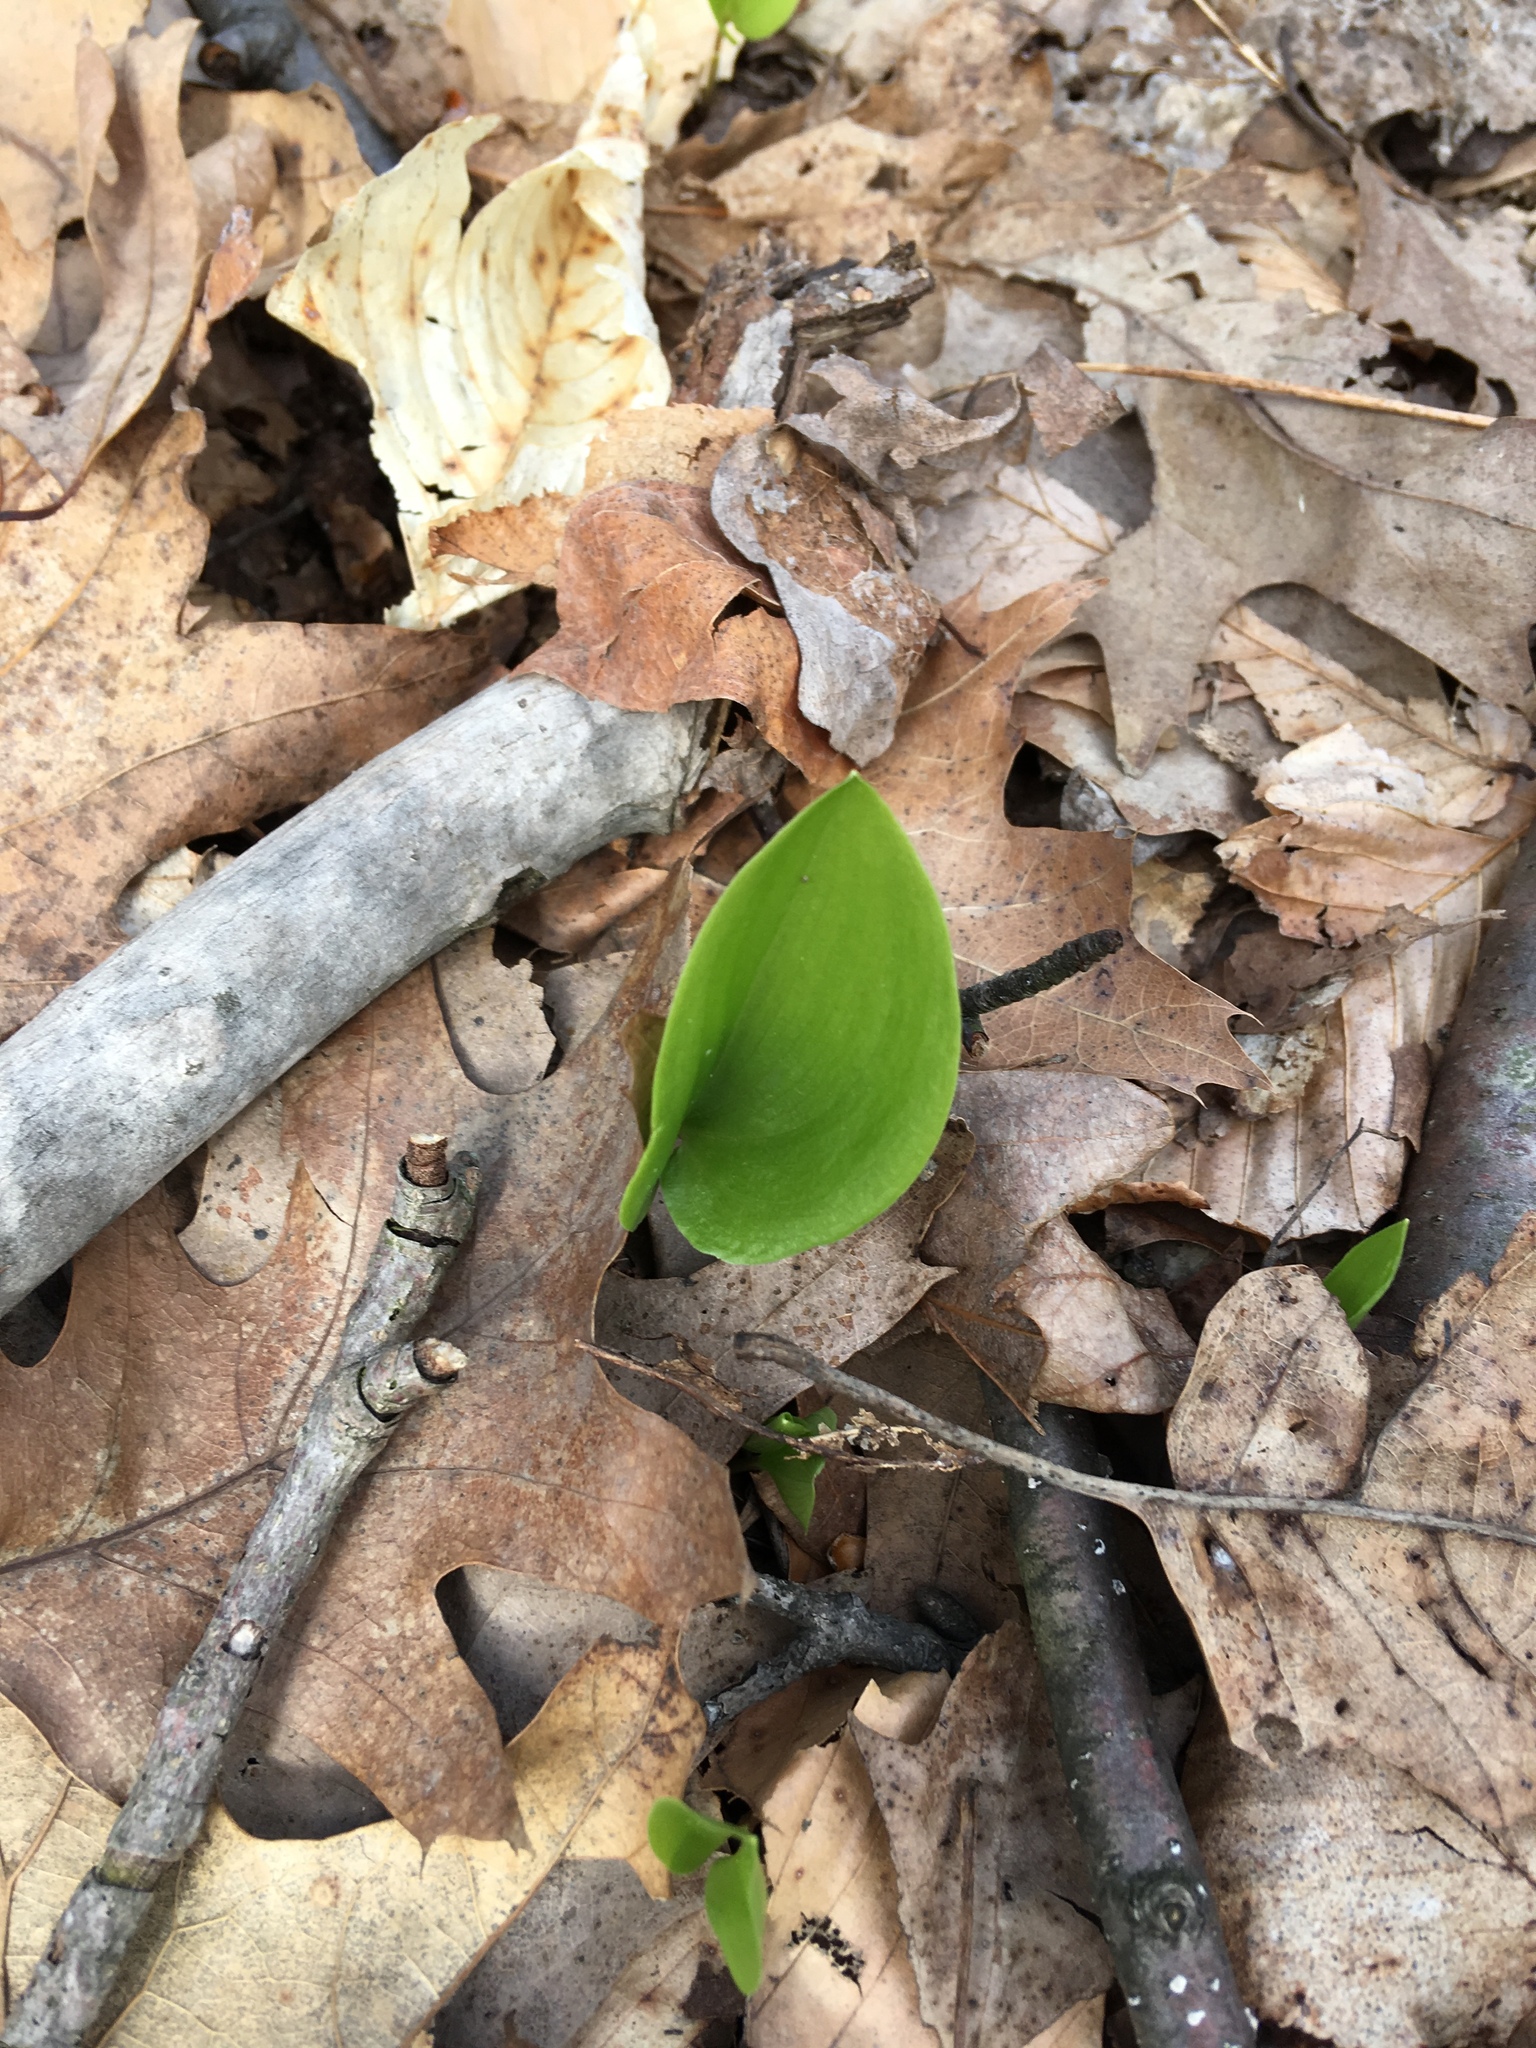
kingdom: Plantae
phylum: Tracheophyta
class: Liliopsida
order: Asparagales
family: Asparagaceae
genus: Maianthemum
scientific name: Maianthemum canadense
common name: False lily-of-the-valley
